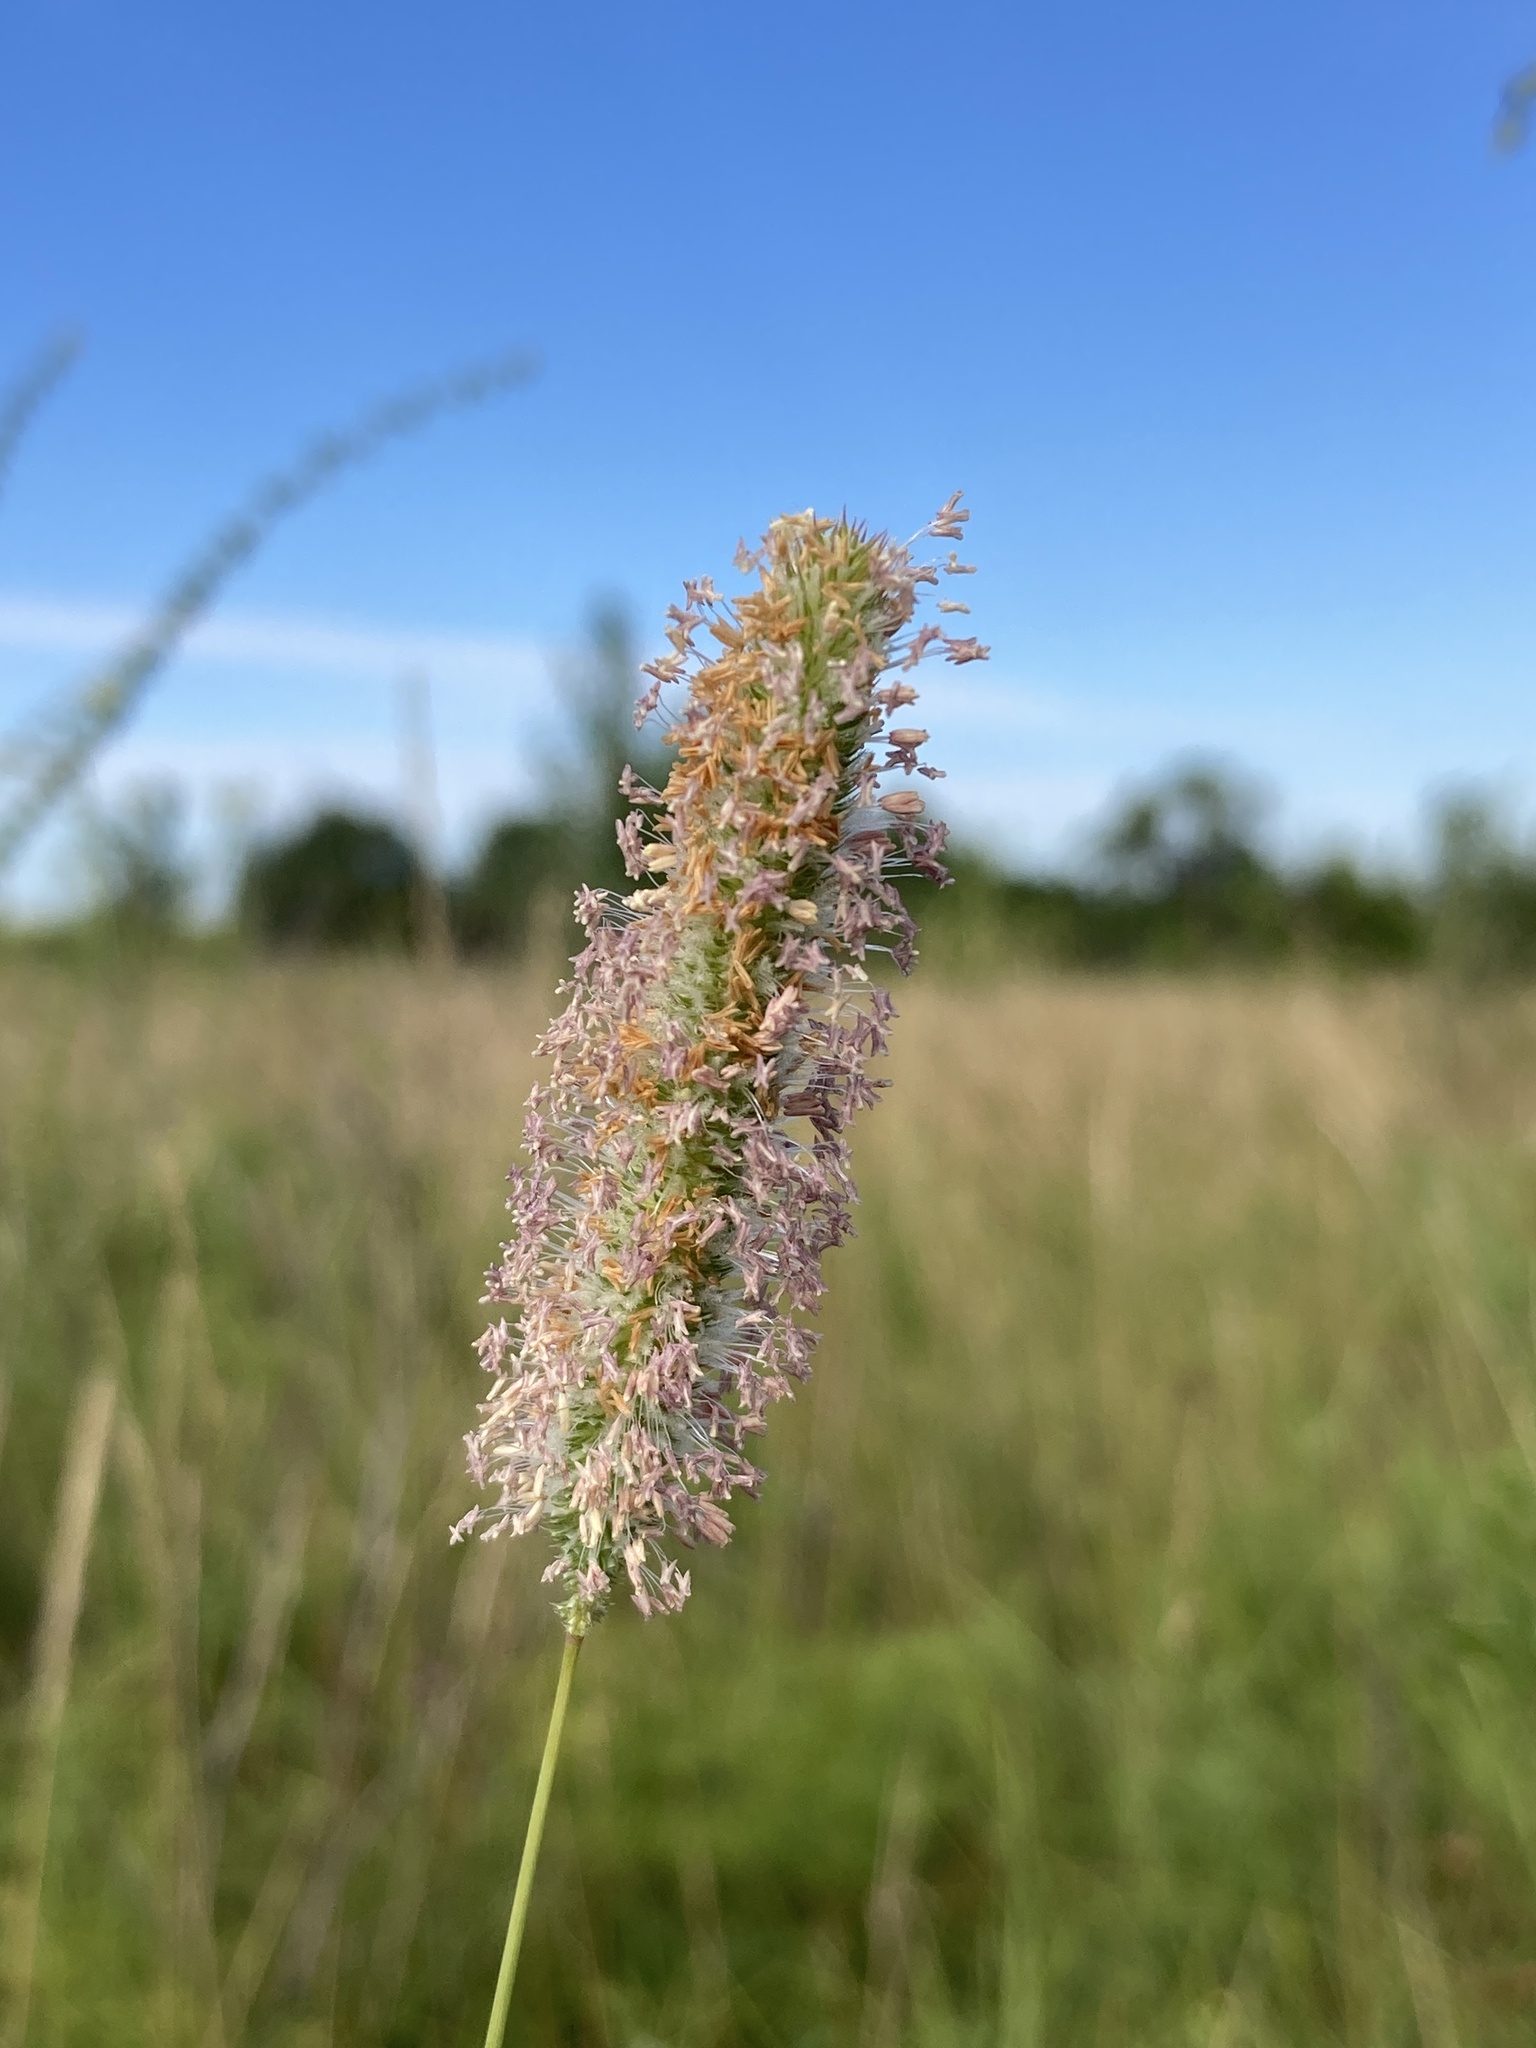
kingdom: Plantae
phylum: Tracheophyta
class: Liliopsida
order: Poales
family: Poaceae
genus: Phleum
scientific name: Phleum pratense
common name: Timothy grass
